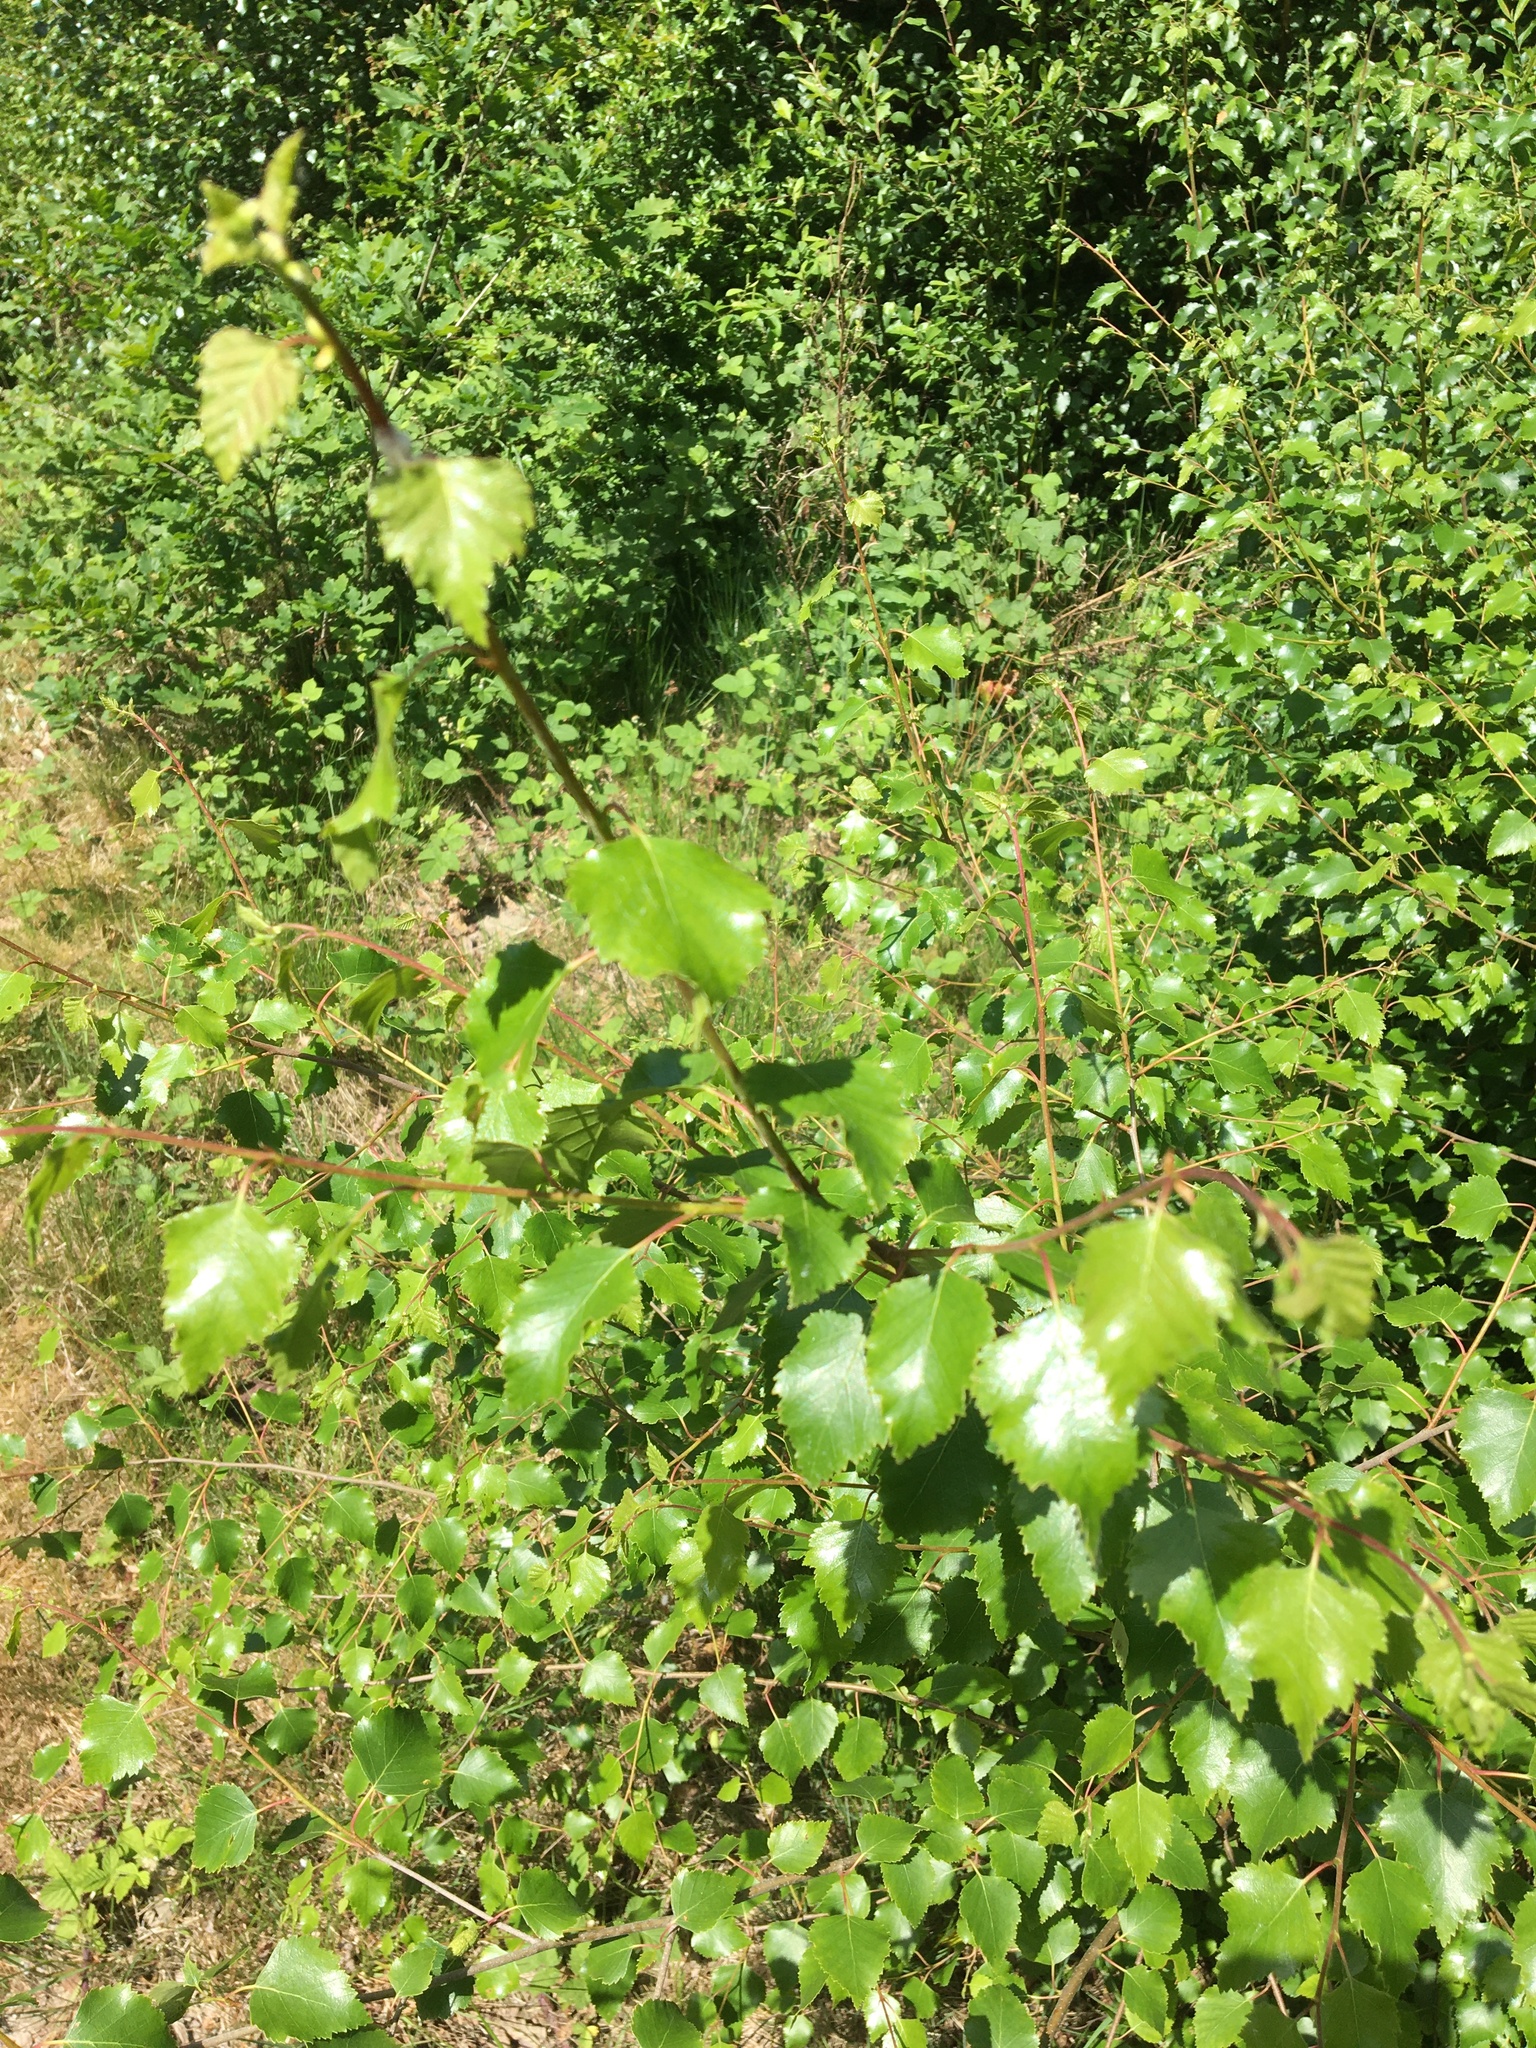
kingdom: Plantae
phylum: Tracheophyta
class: Magnoliopsida
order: Fagales
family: Betulaceae
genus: Betula
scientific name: Betula pendula
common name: Silver birch
